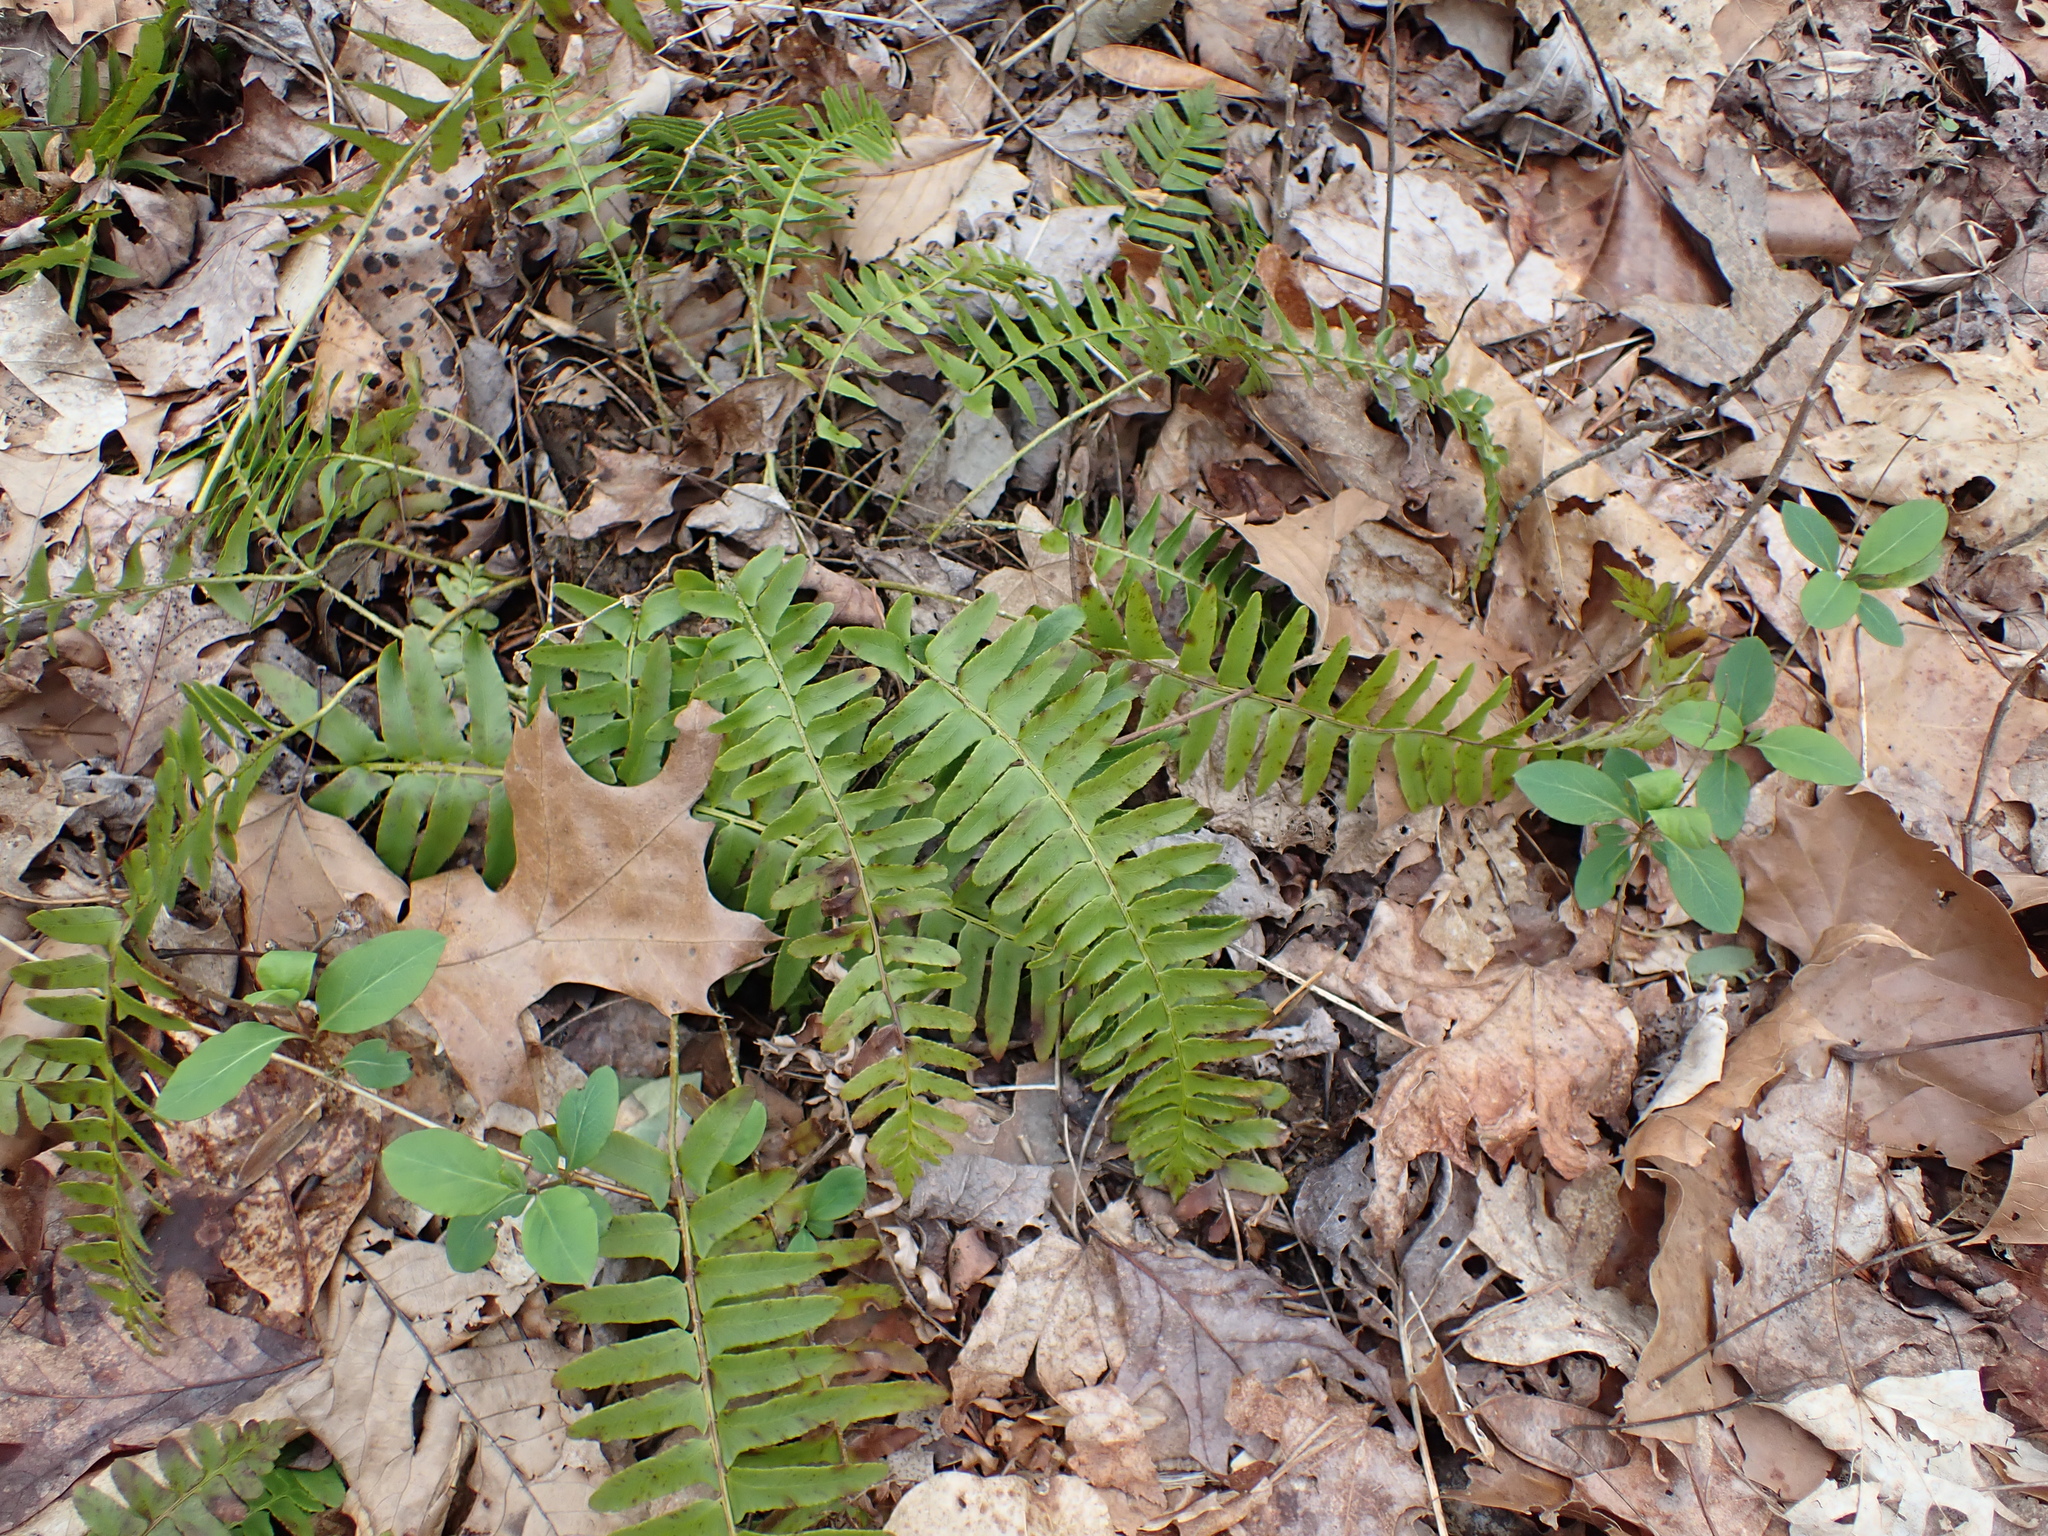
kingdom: Plantae
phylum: Tracheophyta
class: Polypodiopsida
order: Polypodiales
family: Dryopteridaceae
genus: Polystichum
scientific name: Polystichum acrostichoides
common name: Christmas fern
